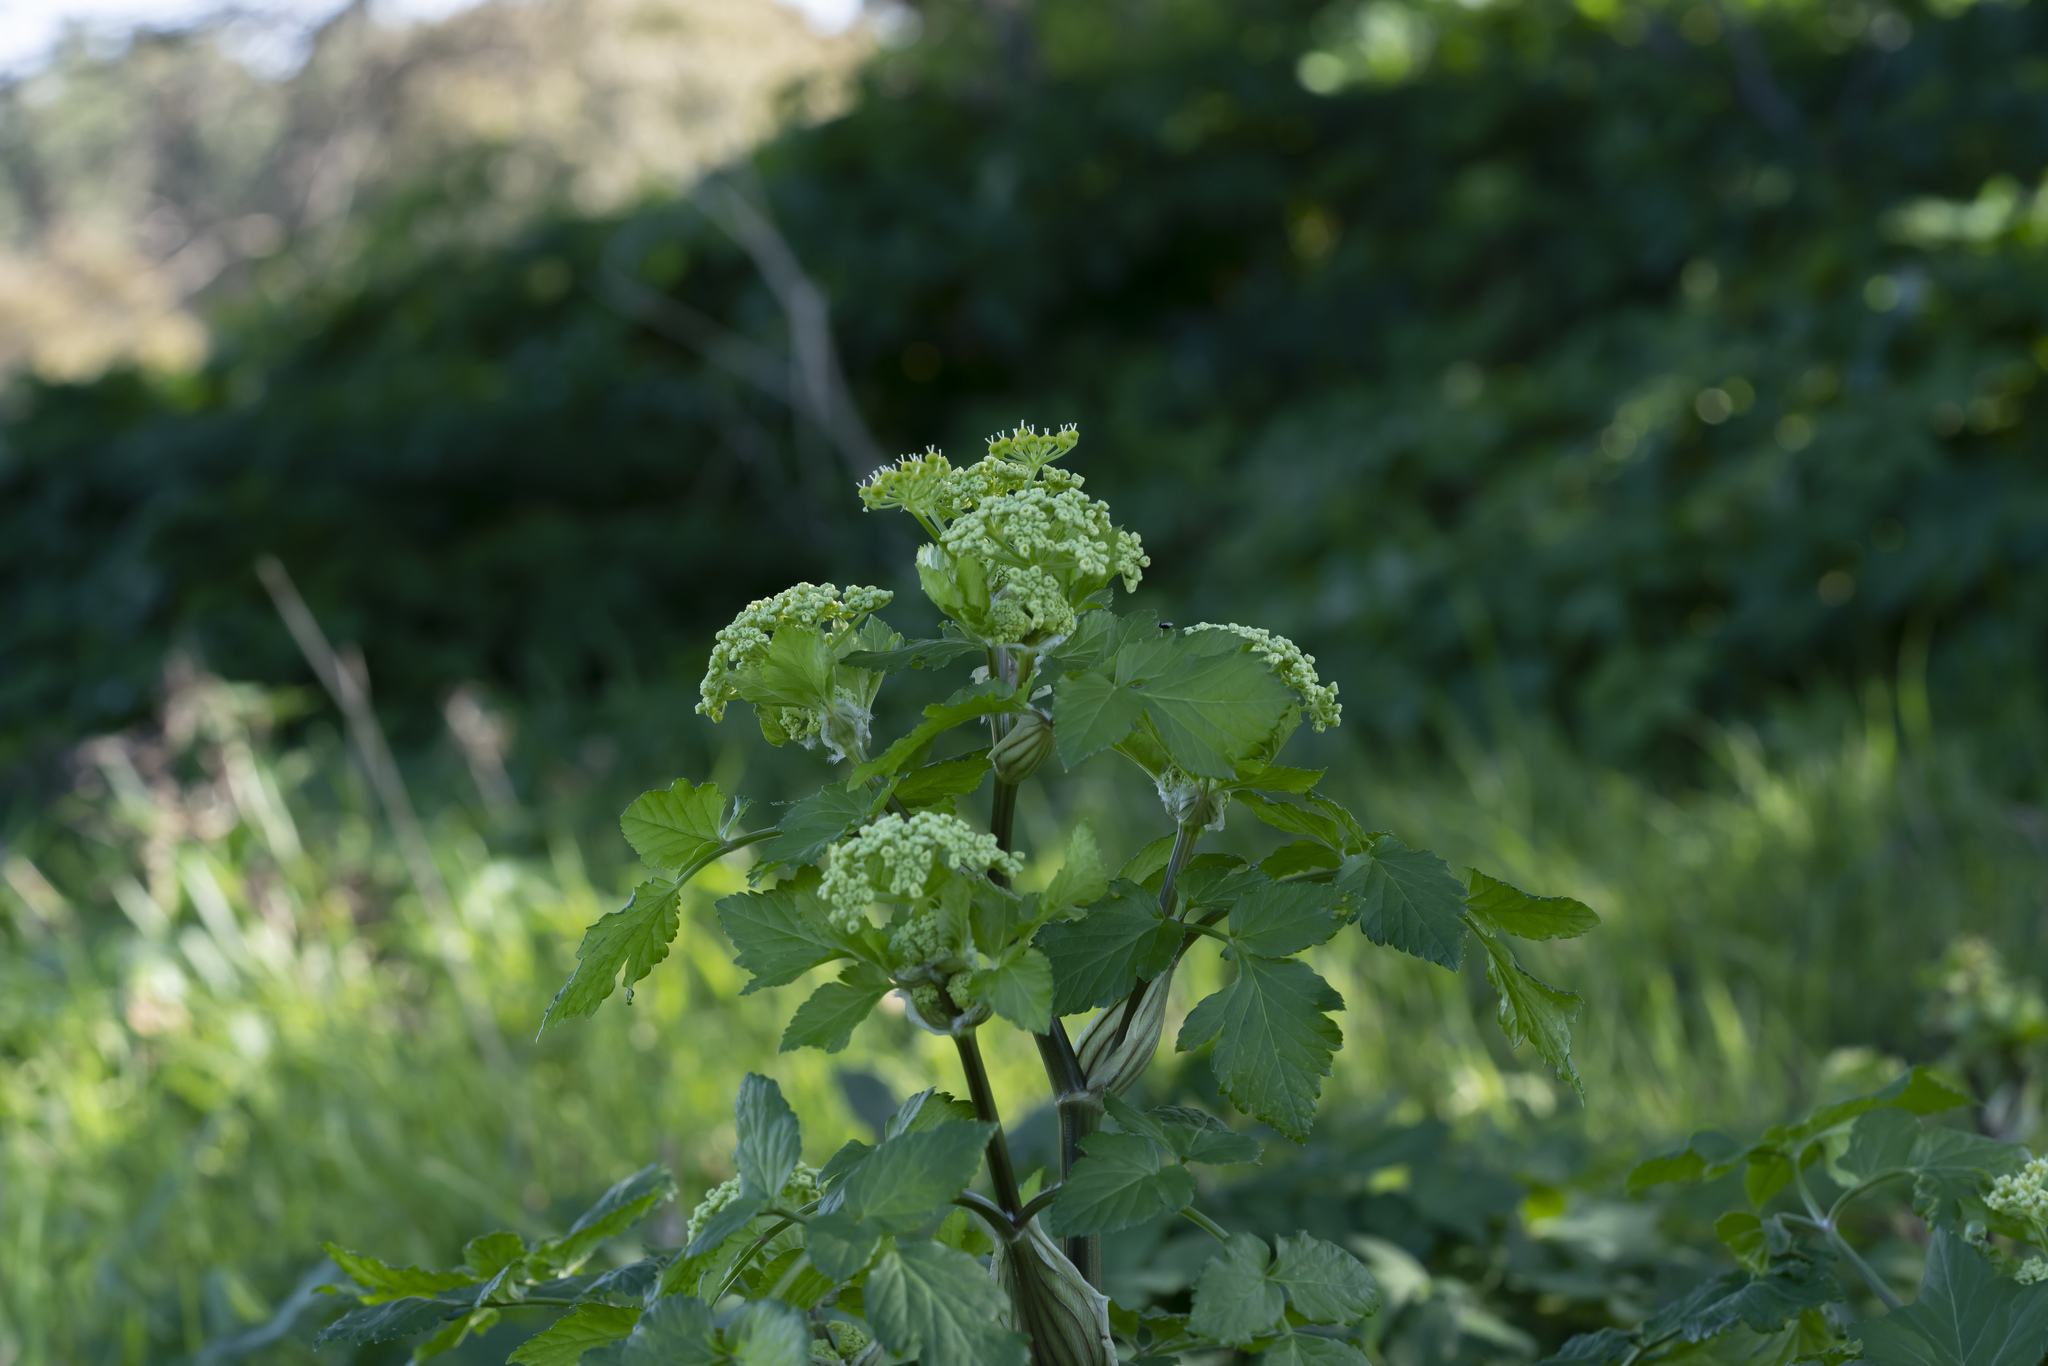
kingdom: Plantae
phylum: Tracheophyta
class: Magnoliopsida
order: Apiales
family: Apiaceae
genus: Smyrnium
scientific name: Smyrnium olusatrum
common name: Alexanders
